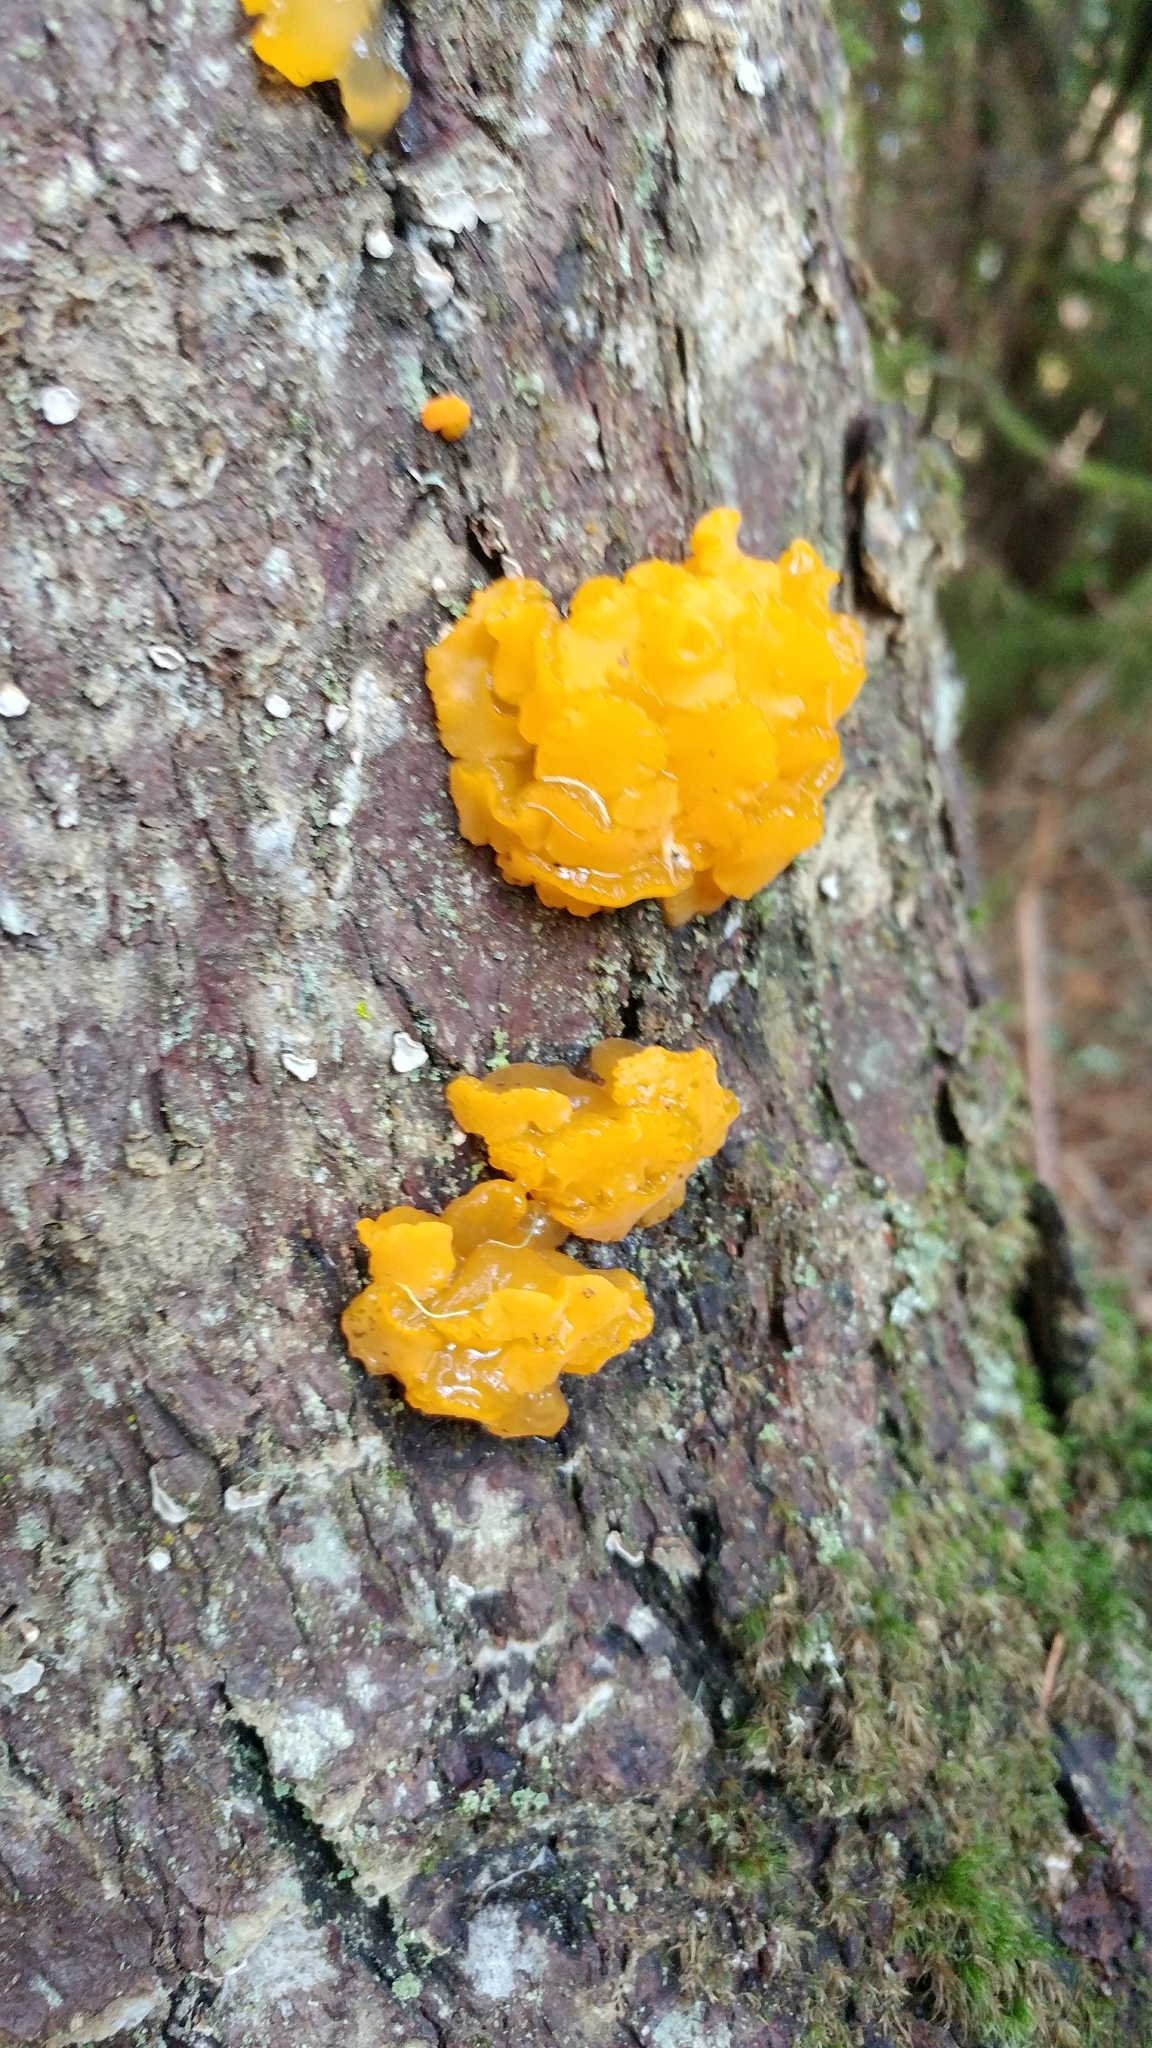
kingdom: Fungi
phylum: Basidiomycota
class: Dacrymycetes
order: Dacrymycetales
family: Dacrymycetaceae
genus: Dacrymyces
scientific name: Dacrymyces chrysospermus
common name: Orange jelly spot
